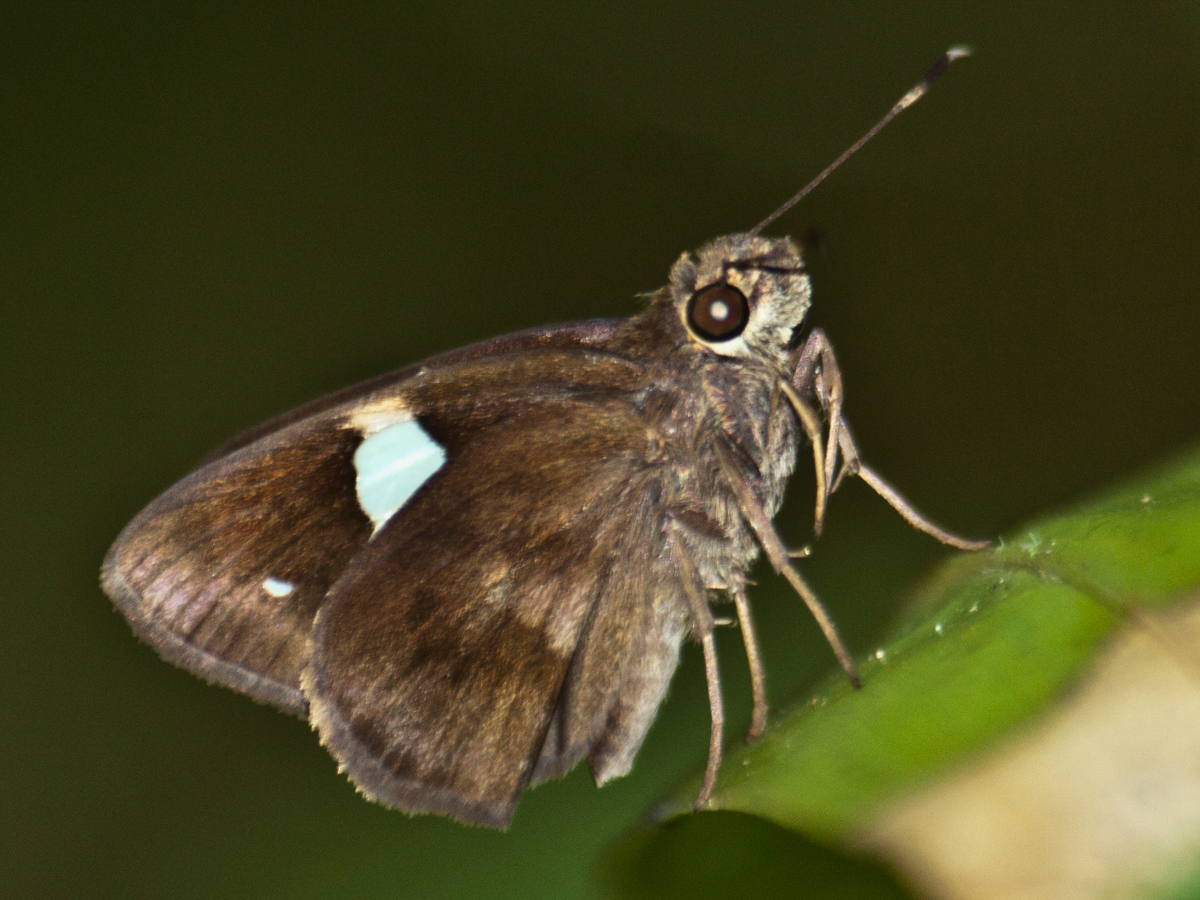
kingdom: Animalia
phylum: Arthropoda
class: Insecta
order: Lepidoptera
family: Hesperiidae
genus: Notocrypta
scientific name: Notocrypta paralysos
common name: Common banded demon
